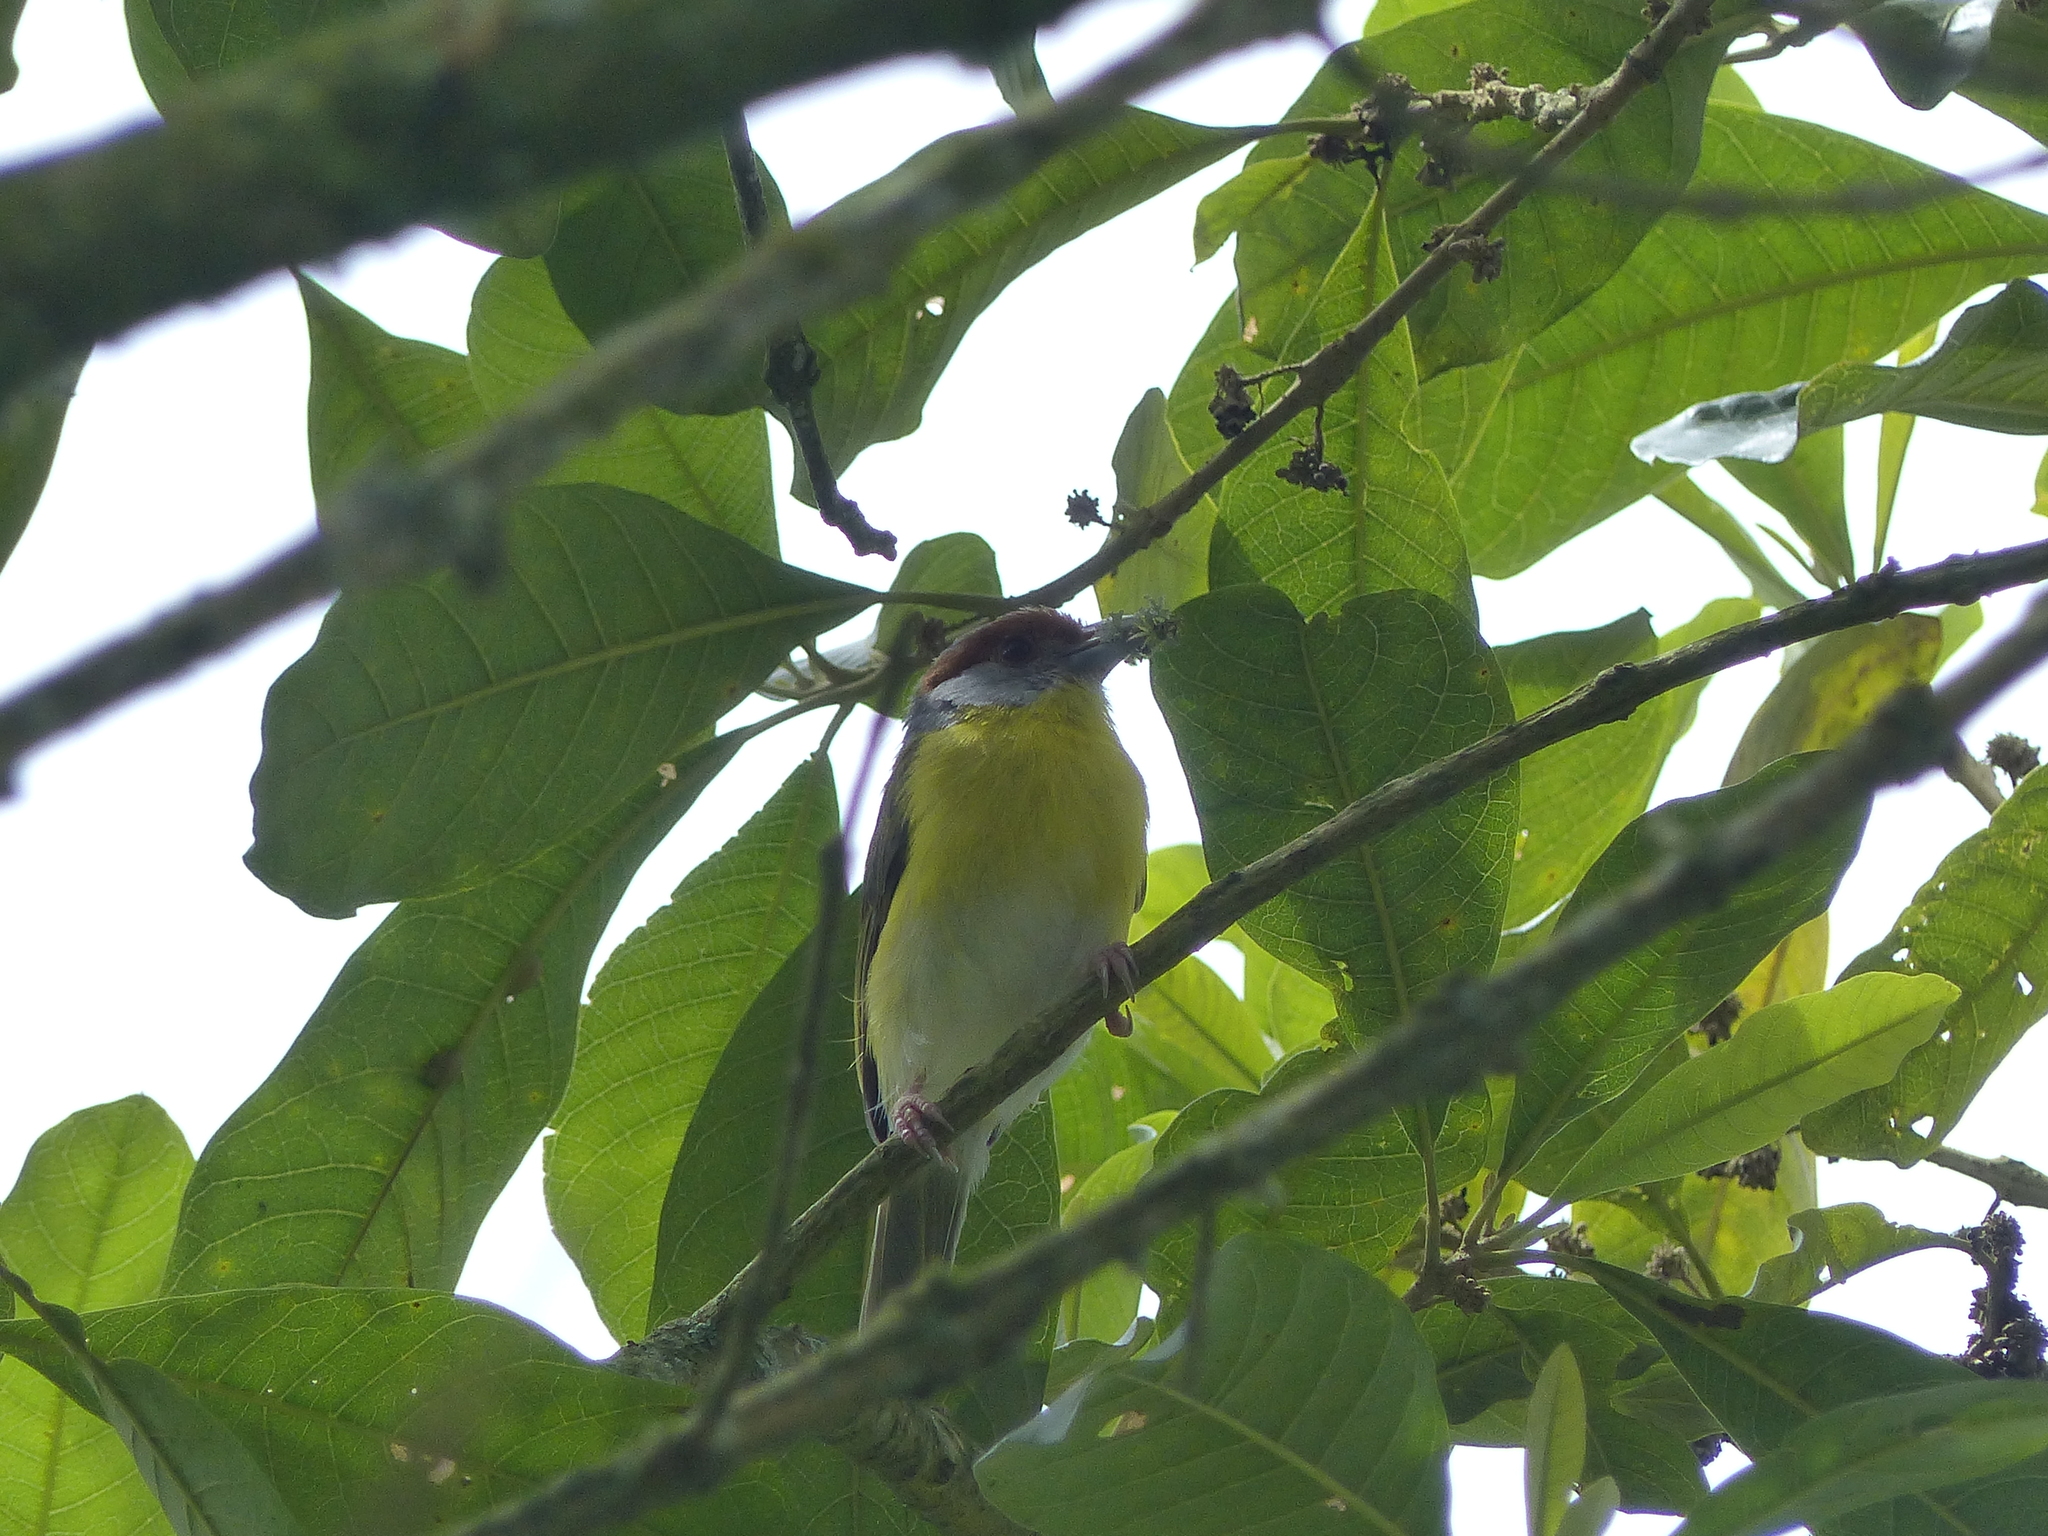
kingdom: Animalia
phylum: Chordata
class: Aves
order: Passeriformes
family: Vireonidae
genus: Cyclarhis
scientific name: Cyclarhis gujanensis
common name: Rufous-browed peppershrike
